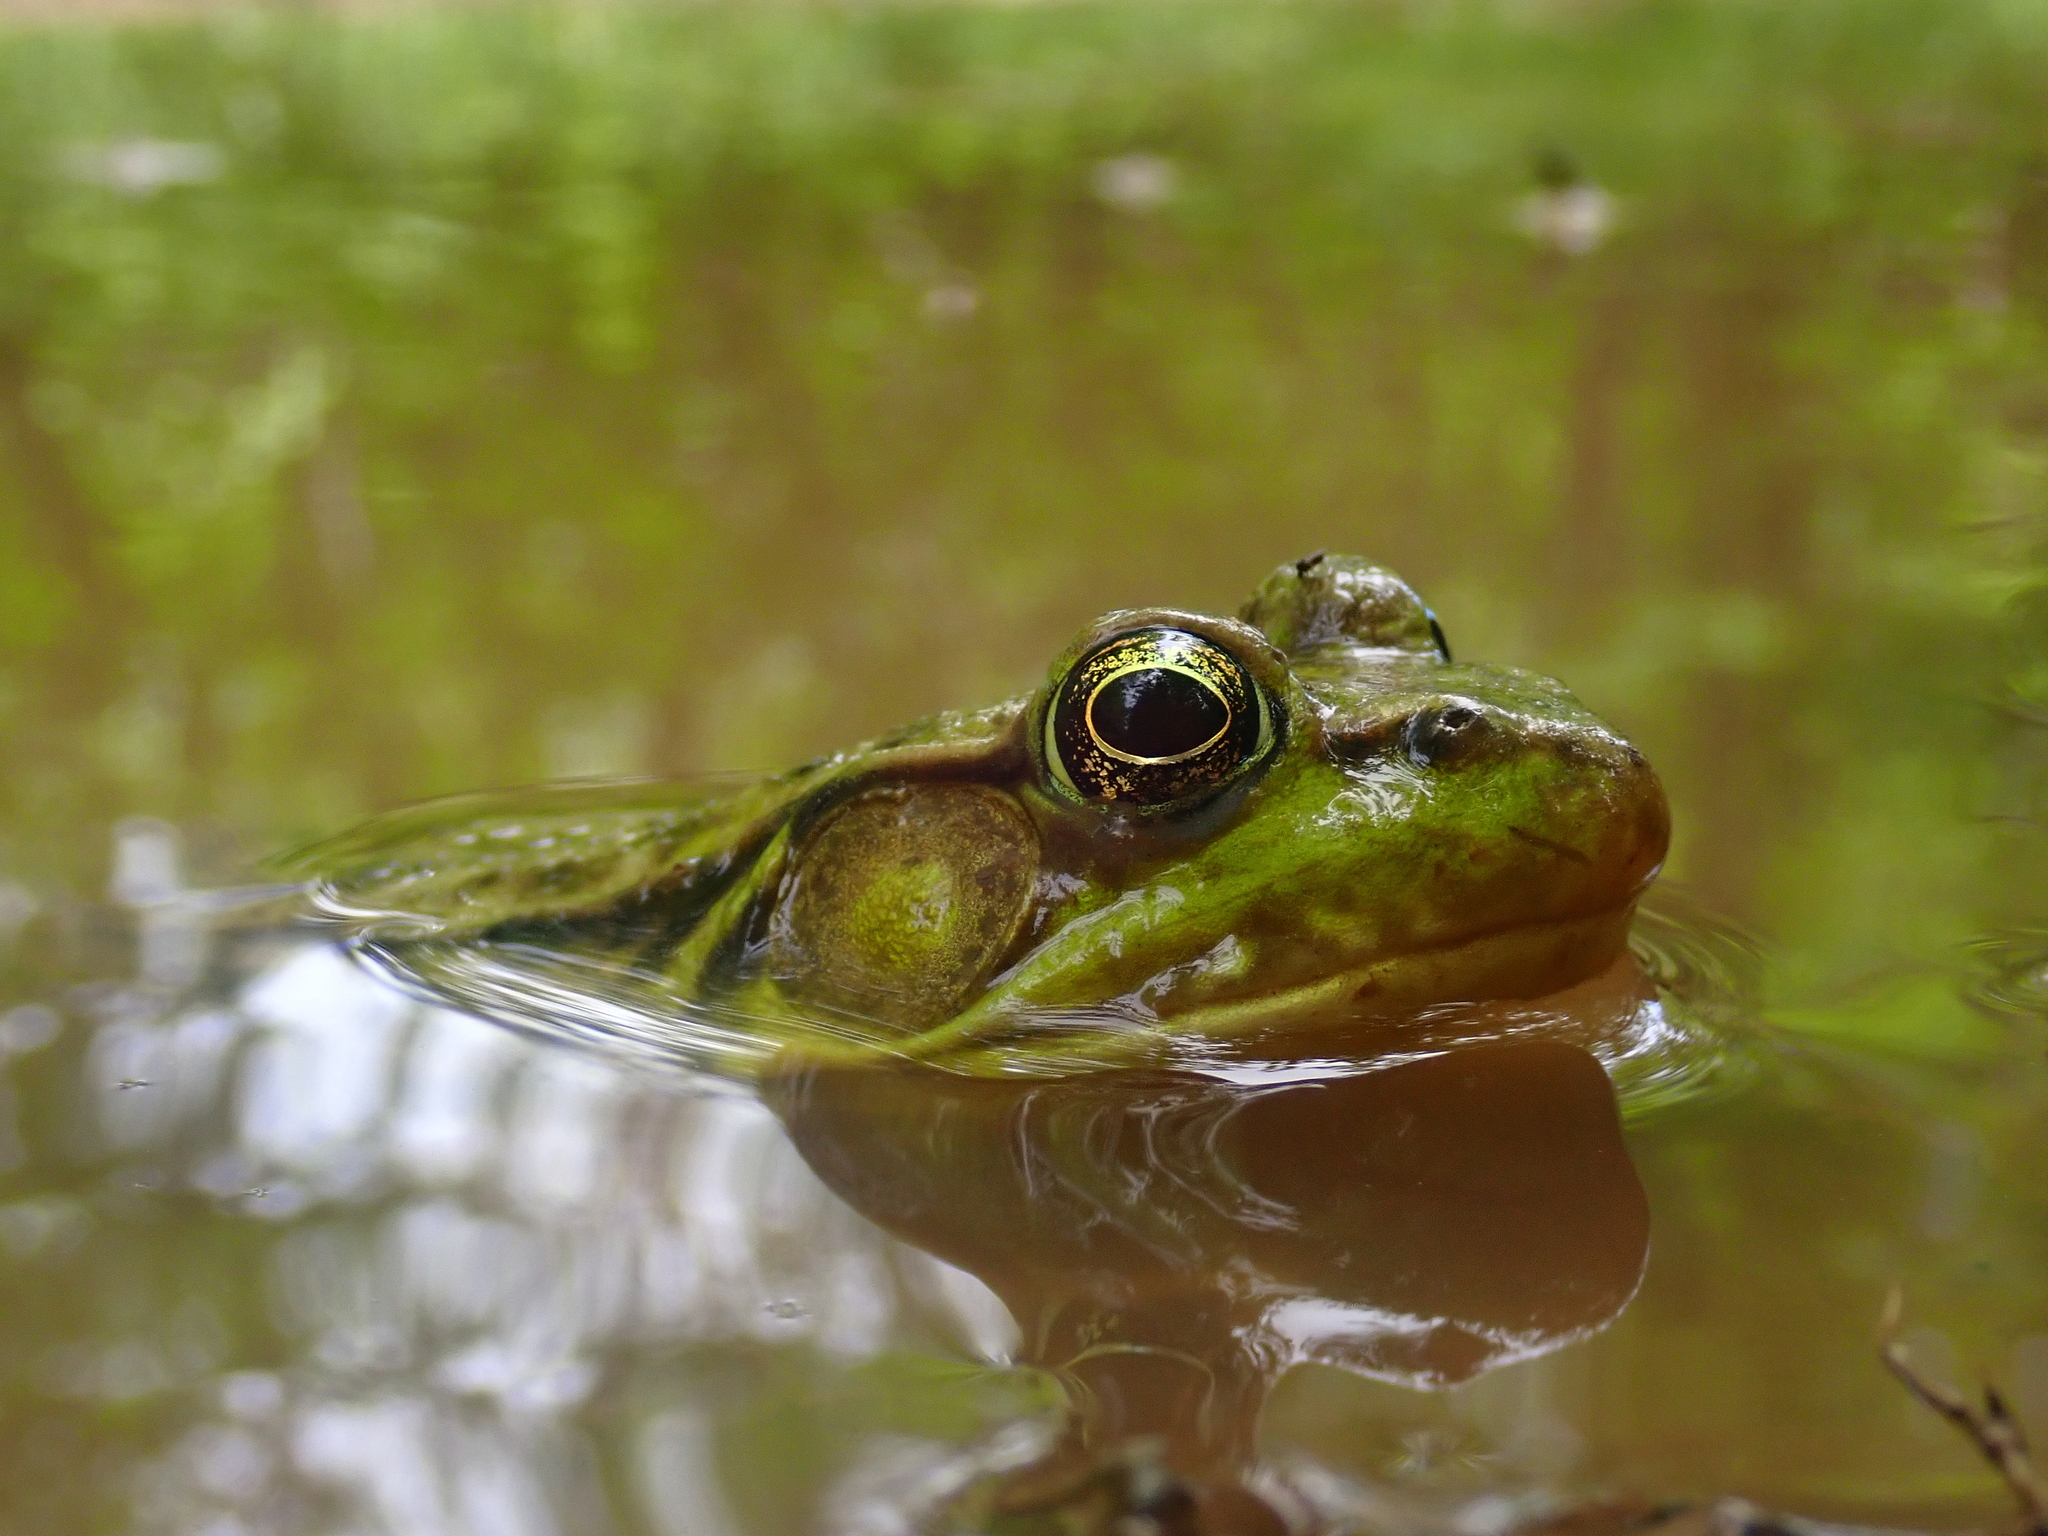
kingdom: Animalia
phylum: Chordata
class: Amphibia
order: Anura
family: Ranidae
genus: Lithobates
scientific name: Lithobates clamitans
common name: Green frog
